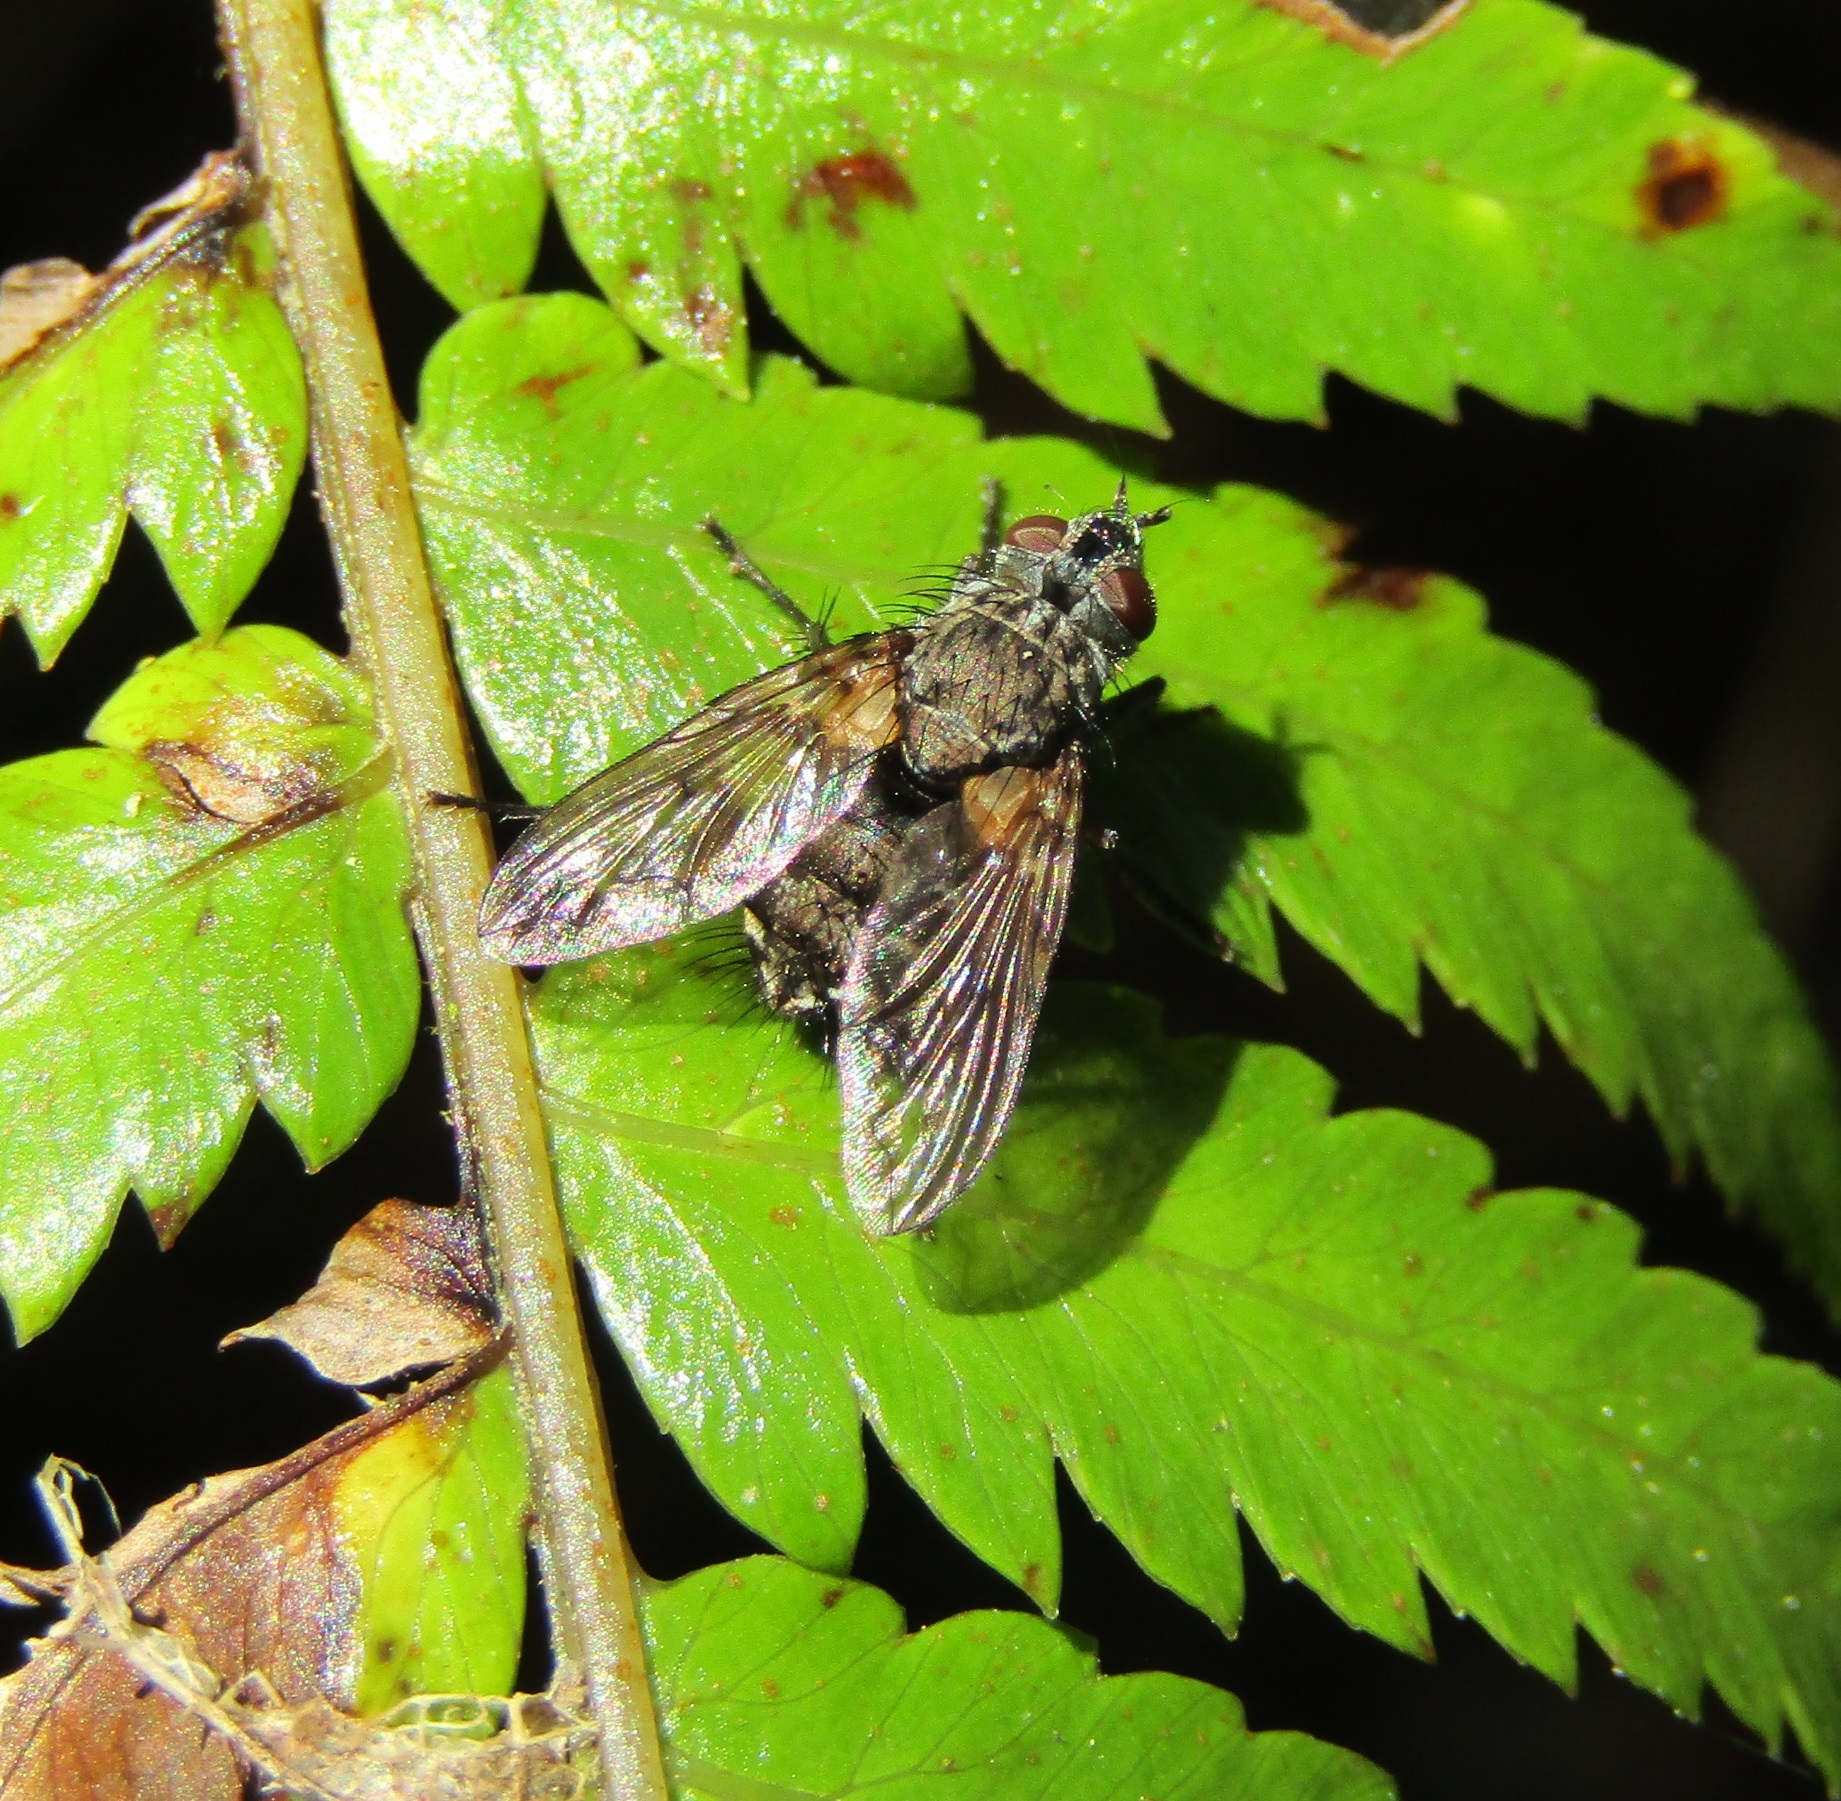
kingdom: Animalia
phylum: Arthropoda
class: Insecta
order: Diptera
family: Tachinidae
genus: Mallochomacquartia
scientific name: Mallochomacquartia vexata
